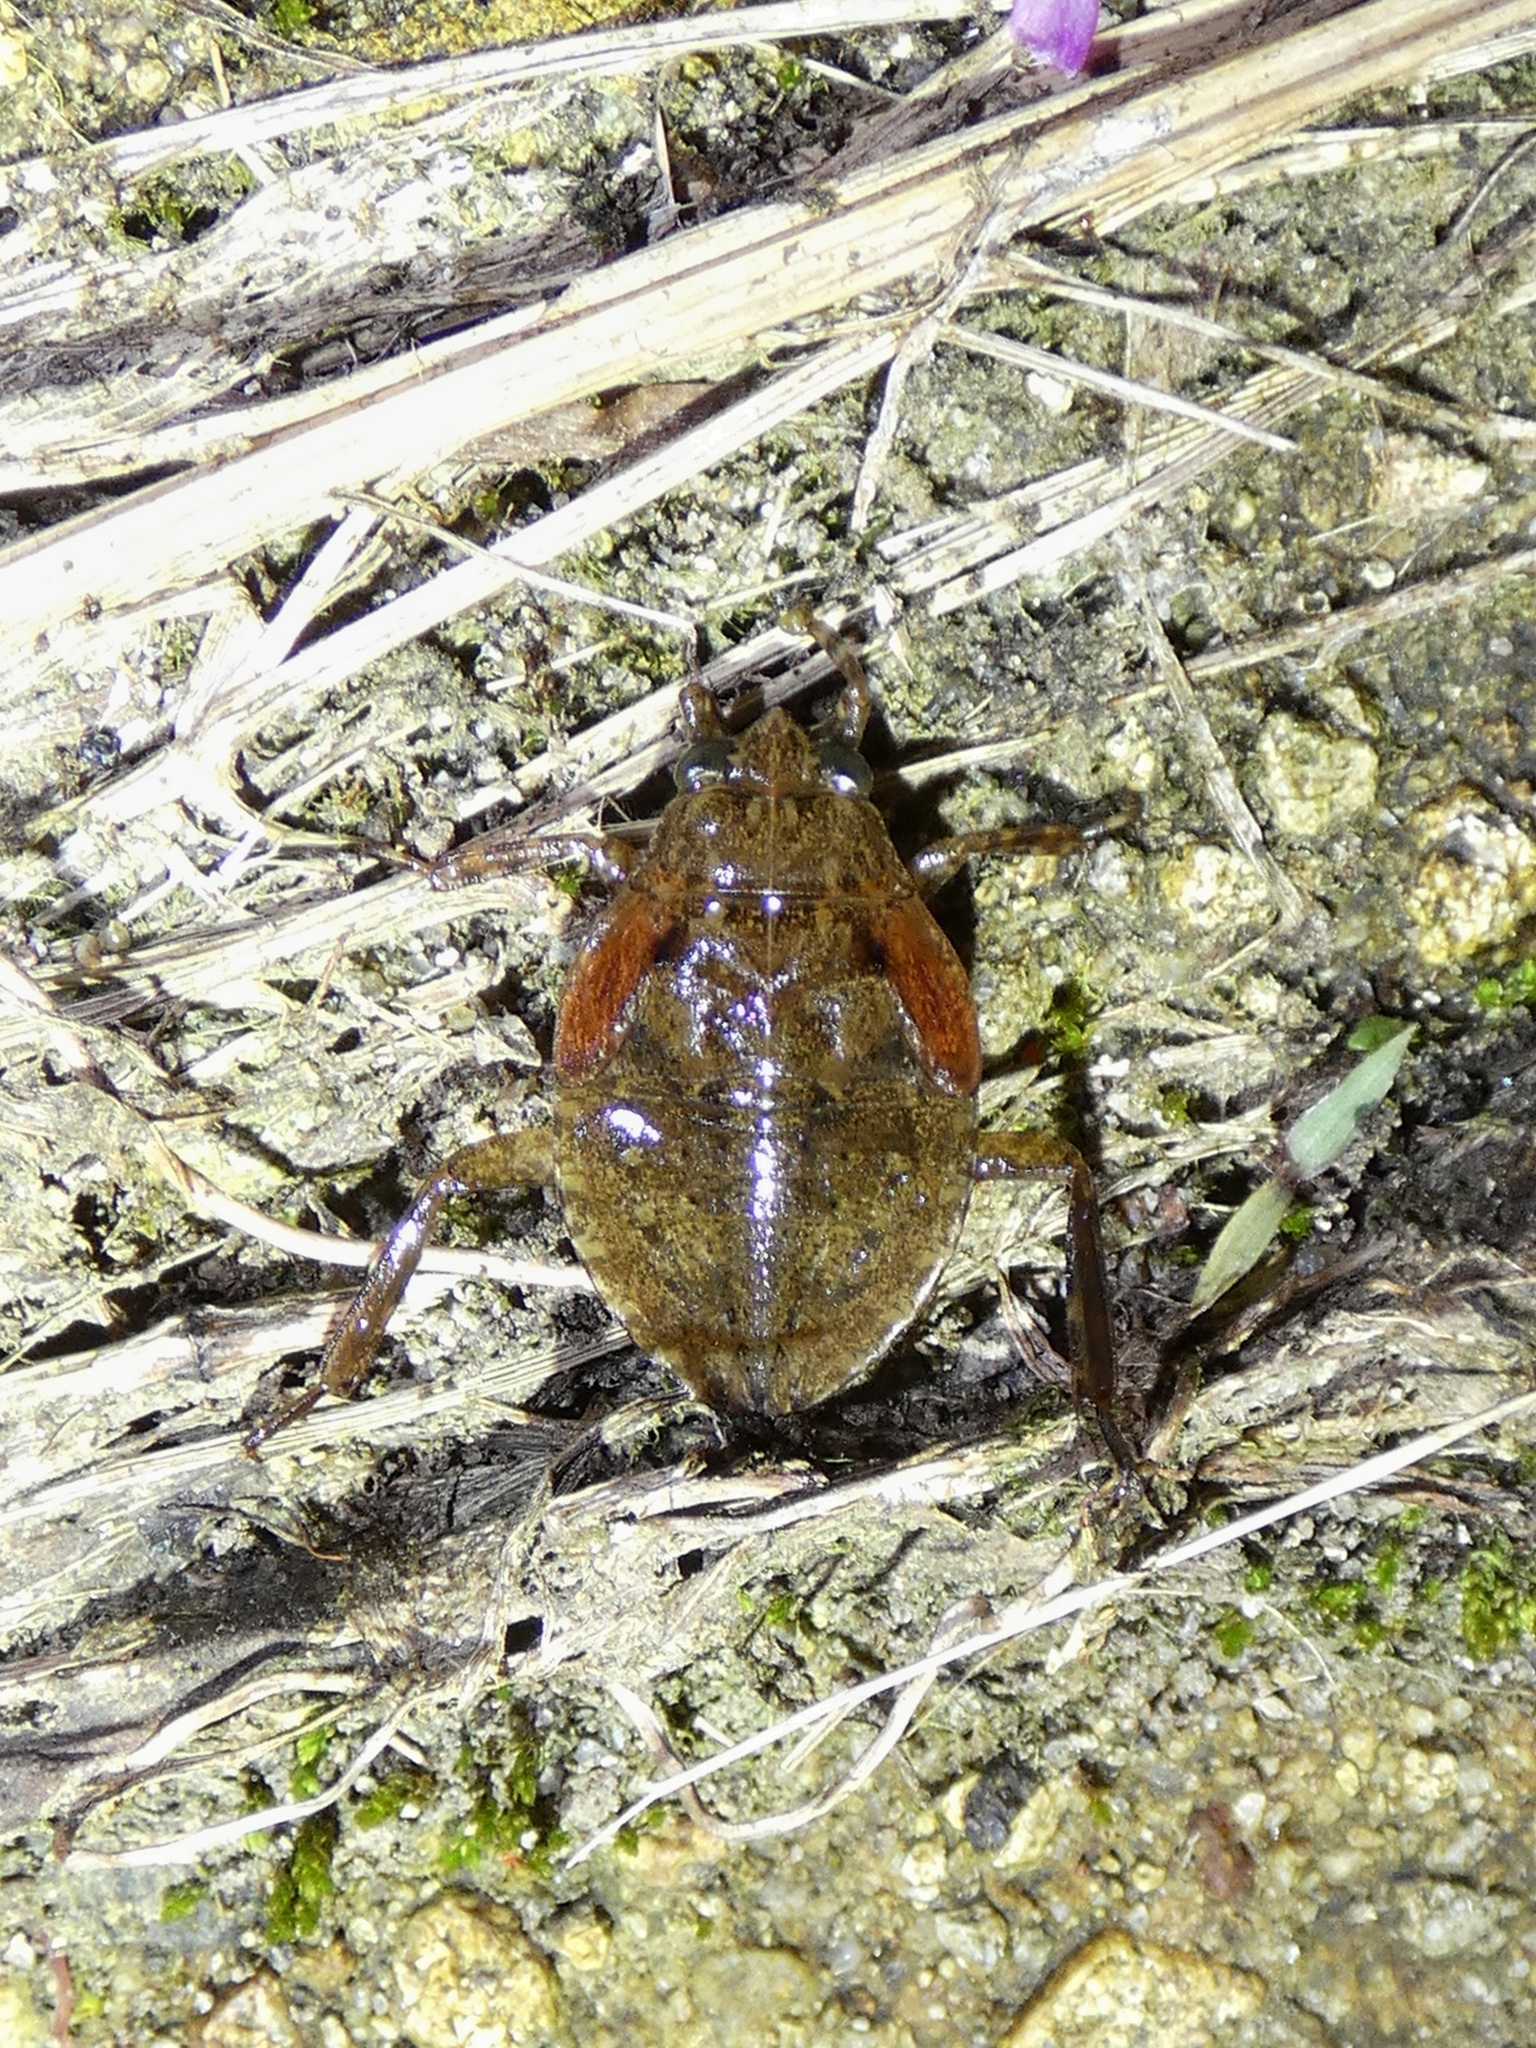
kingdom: Animalia
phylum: Arthropoda
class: Insecta
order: Hemiptera
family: Belostomatidae
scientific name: Belostomatidae
